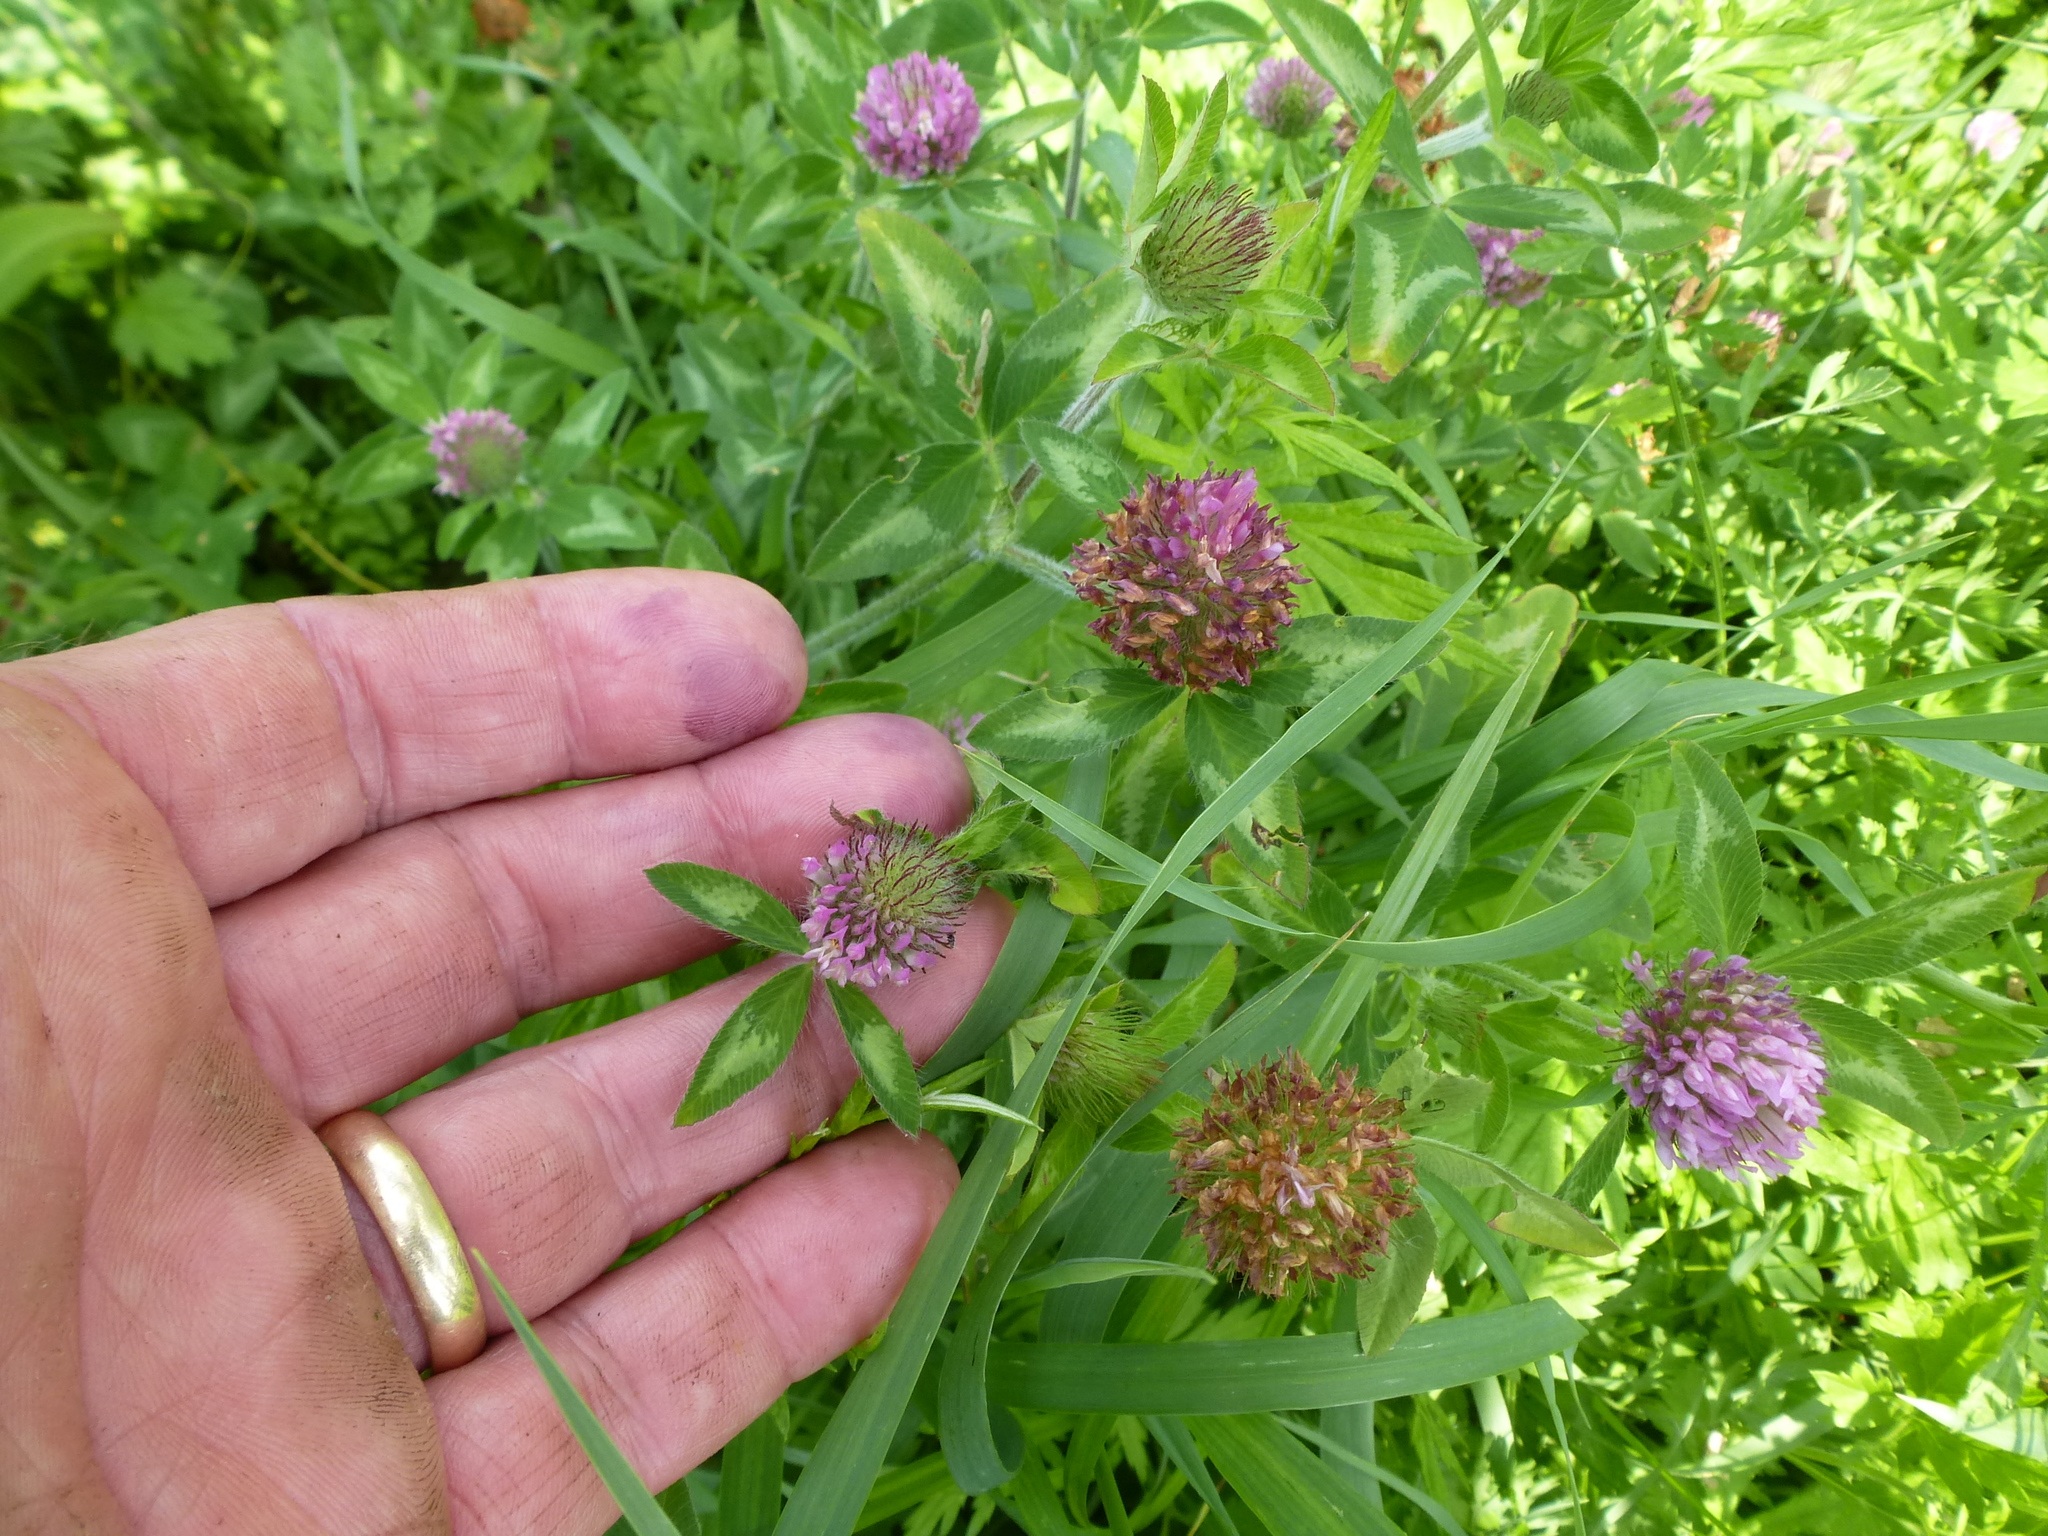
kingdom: Plantae
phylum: Tracheophyta
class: Magnoliopsida
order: Fabales
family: Fabaceae
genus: Trifolium
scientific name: Trifolium pratense
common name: Red clover
